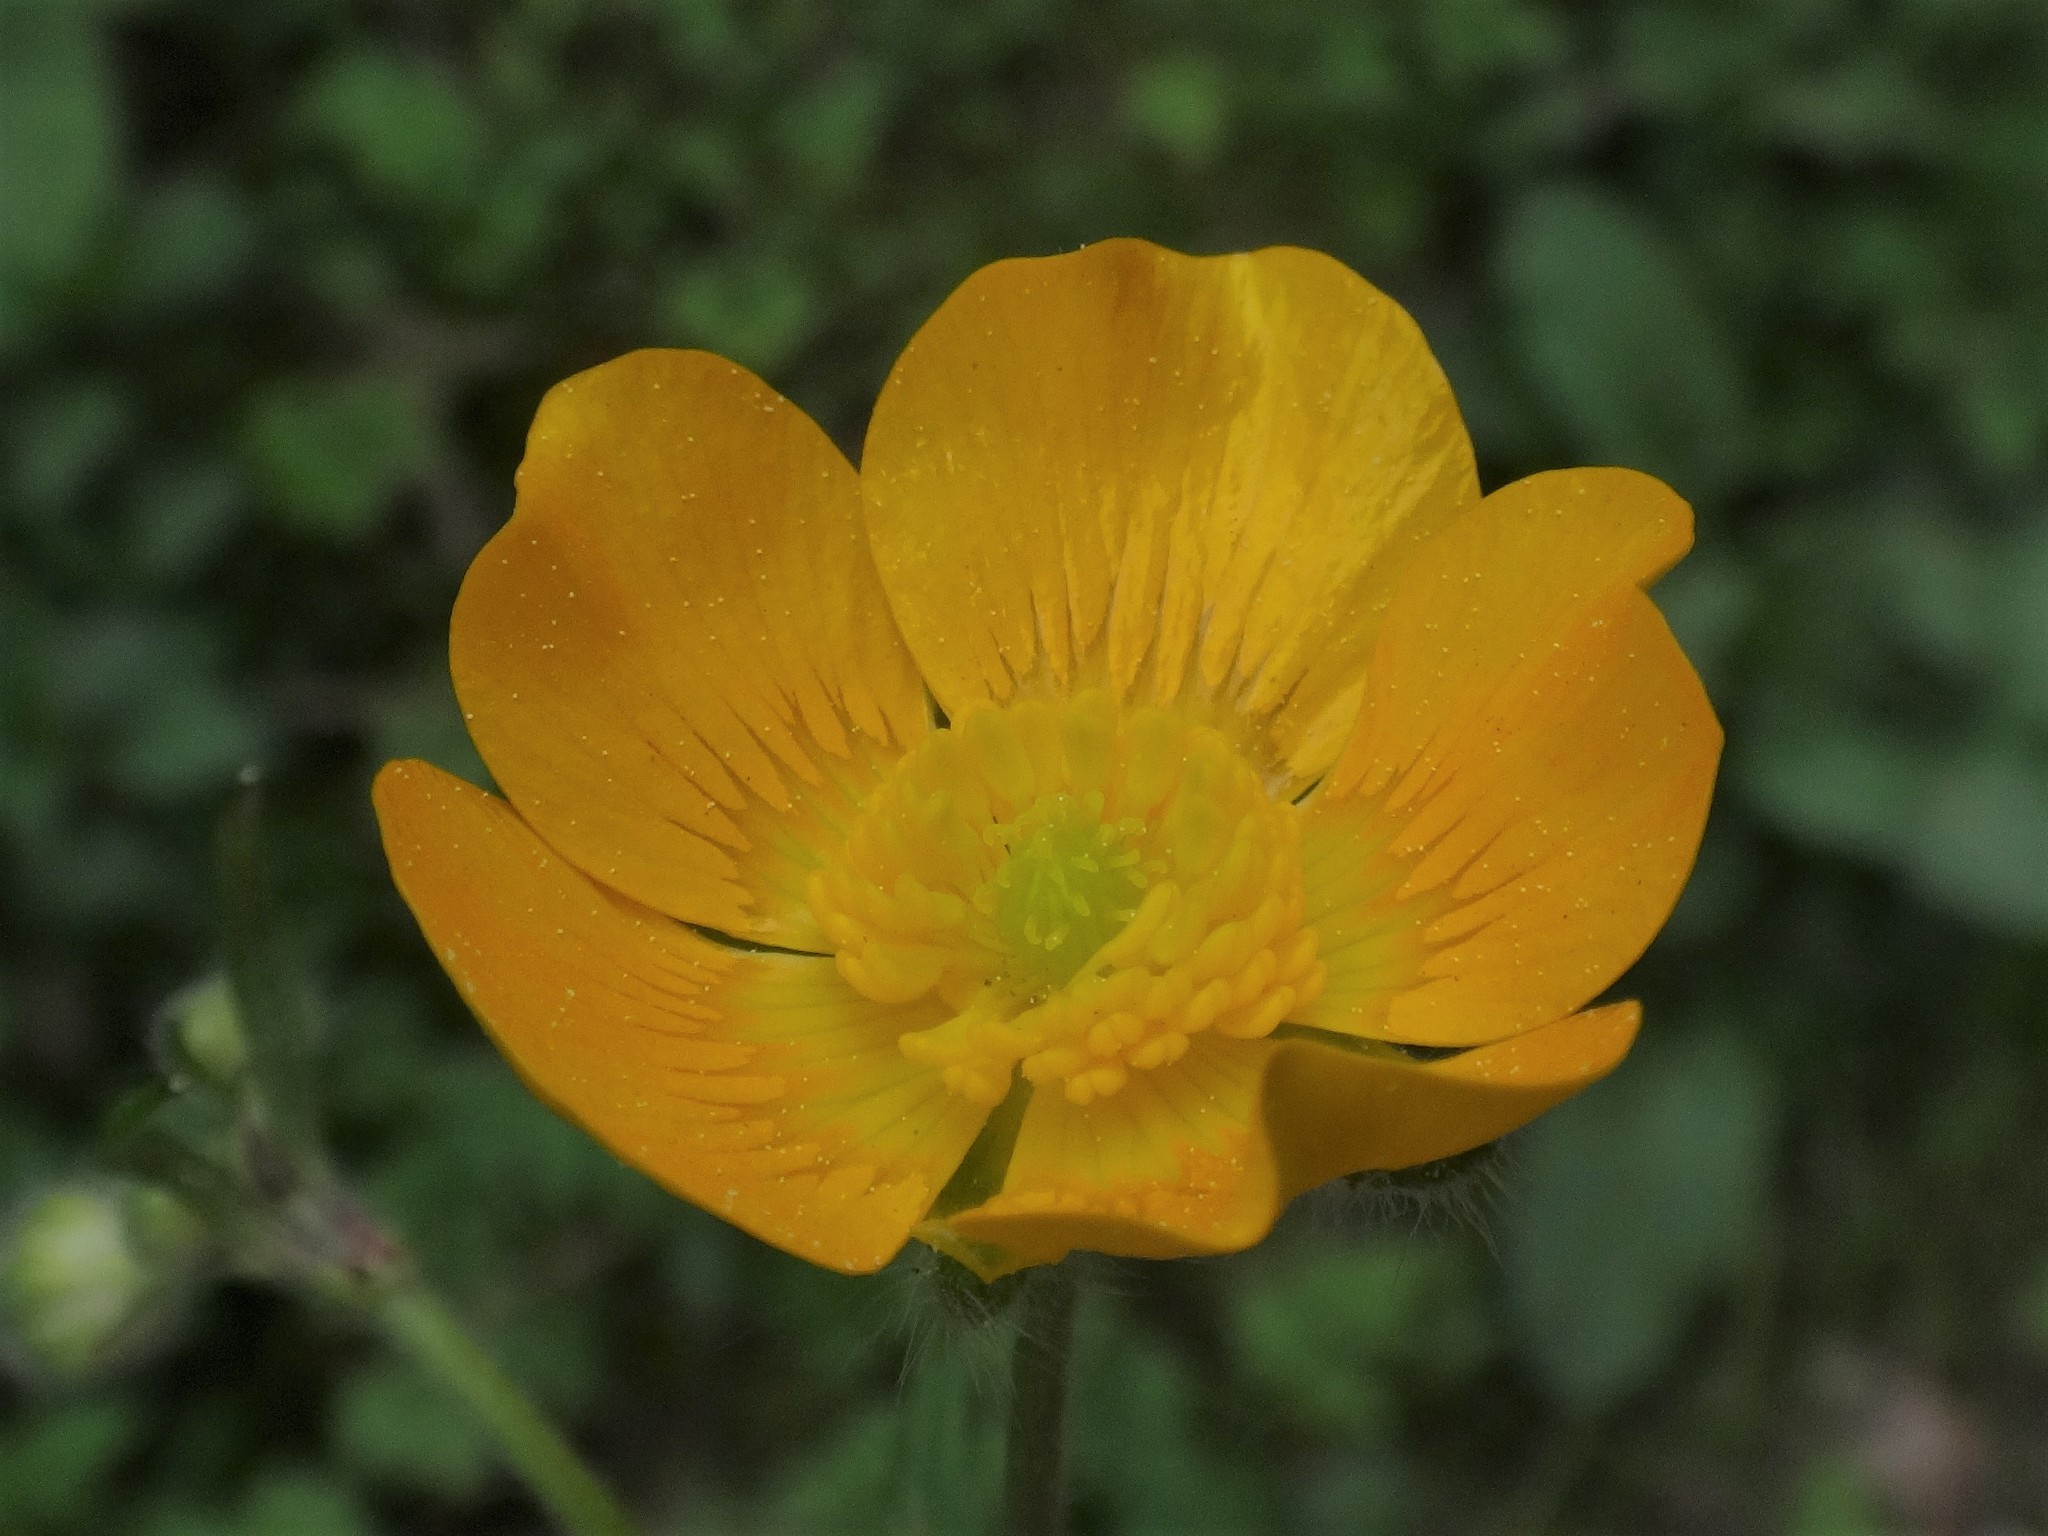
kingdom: Plantae
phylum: Tracheophyta
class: Magnoliopsida
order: Ranunculales
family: Ranunculaceae
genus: Ranunculus
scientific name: Ranunculus lanuginosus
